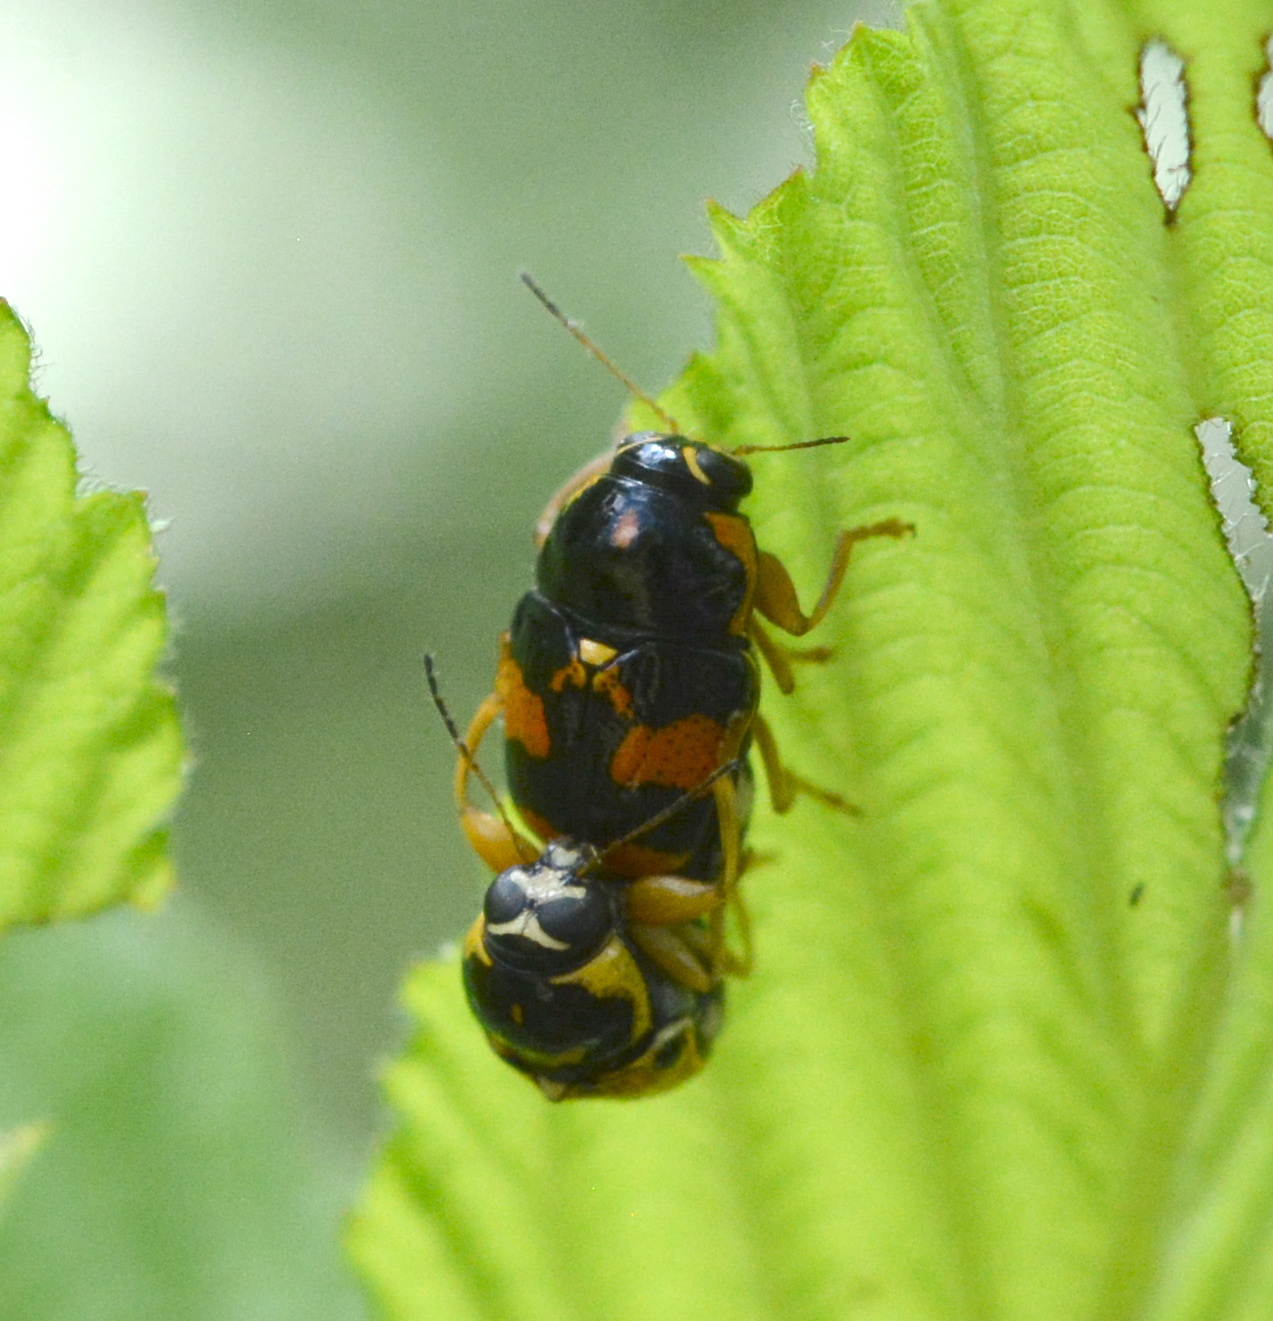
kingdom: Animalia
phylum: Arthropoda
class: Insecta
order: Coleoptera
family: Chrysomelidae
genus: Griburius
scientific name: Griburius scutellaris
